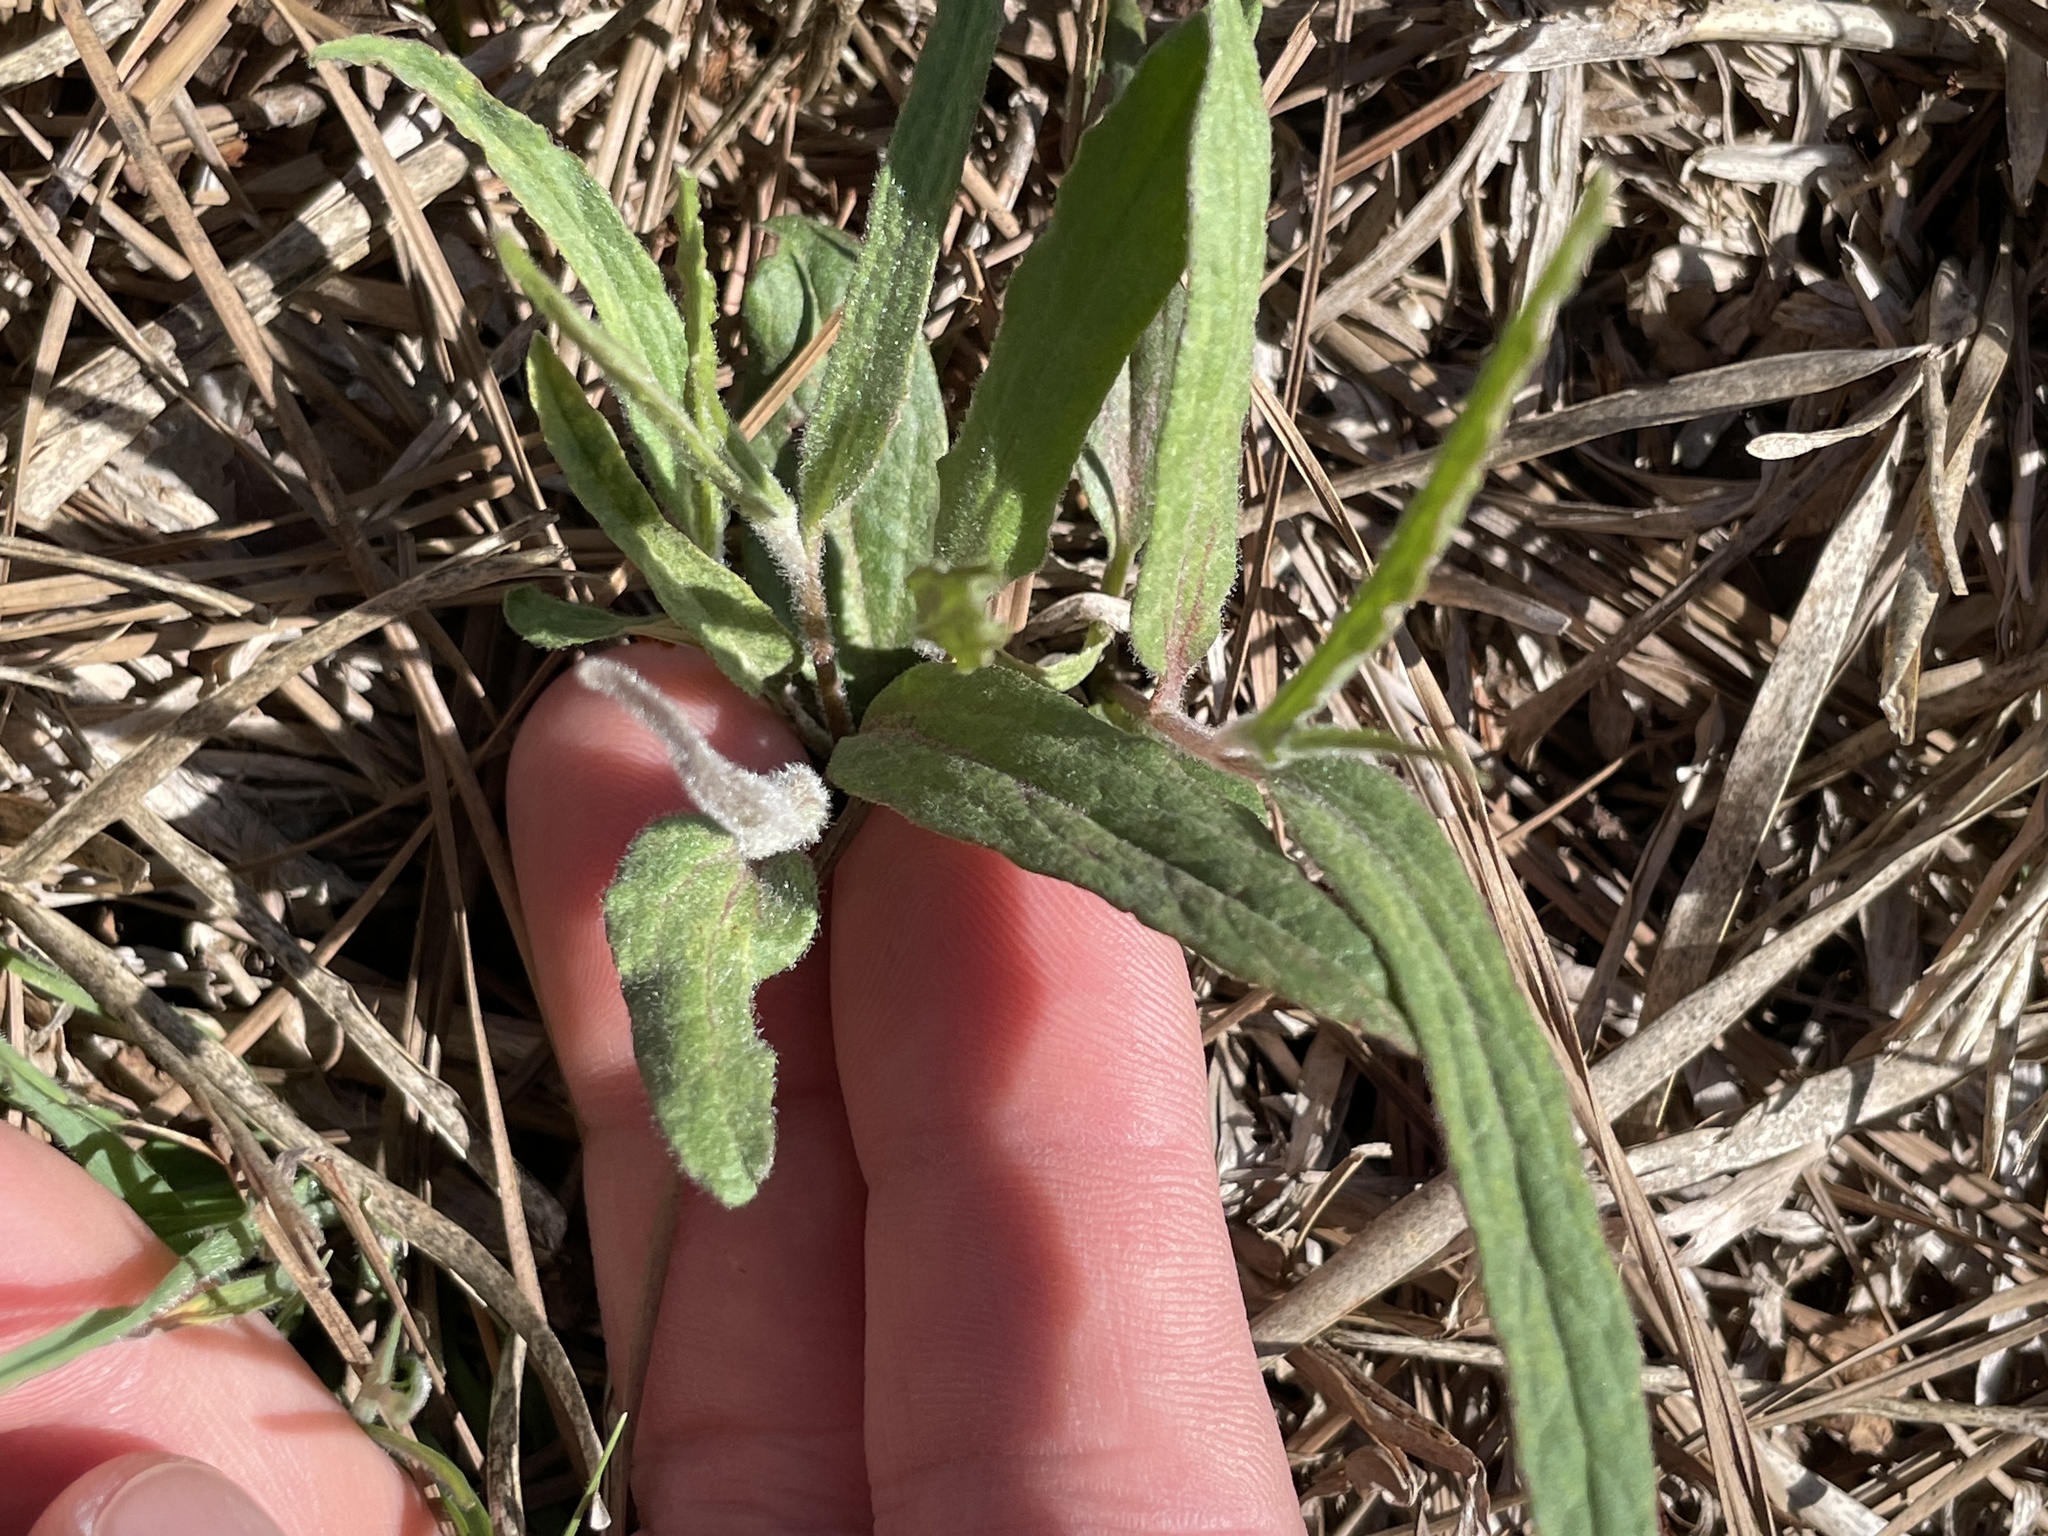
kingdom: Plantae
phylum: Tracheophyta
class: Magnoliopsida
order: Piperales
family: Aristolochiaceae
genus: Aristolochia
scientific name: Aristolochia erecta
